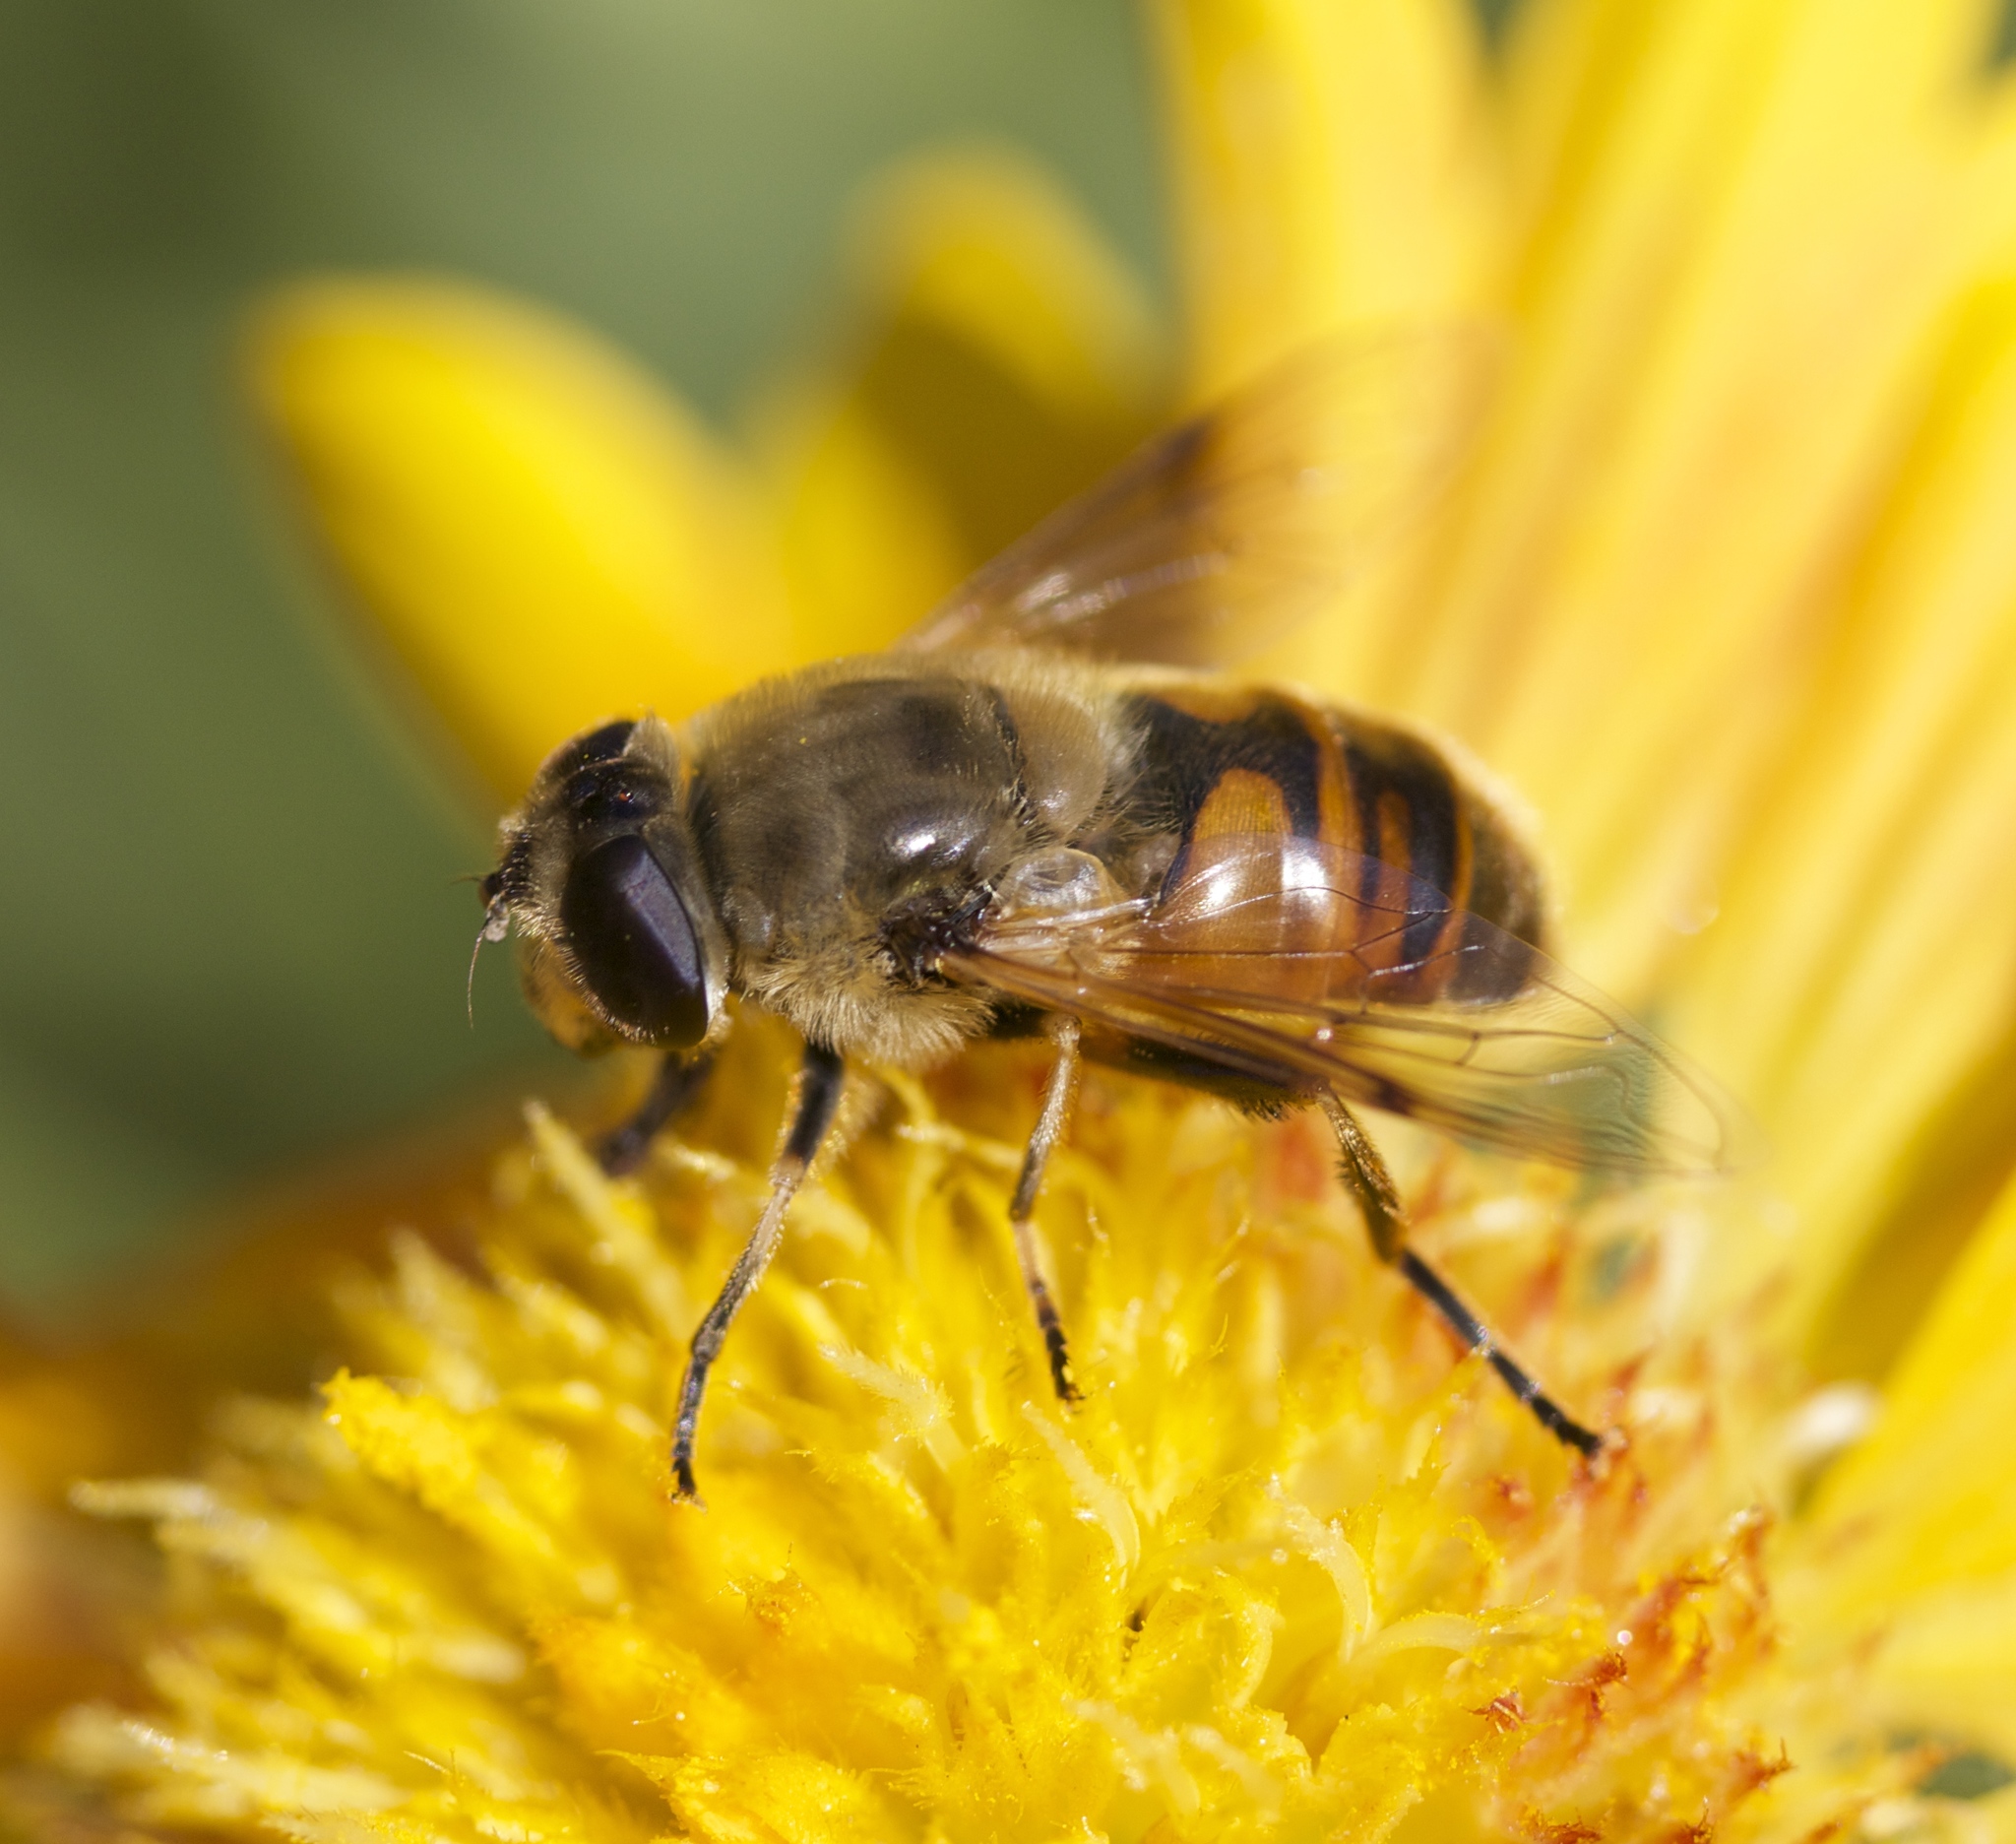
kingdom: Animalia
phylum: Arthropoda
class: Insecta
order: Diptera
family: Syrphidae
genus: Eristalis
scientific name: Eristalis tenax
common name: Drone fly
